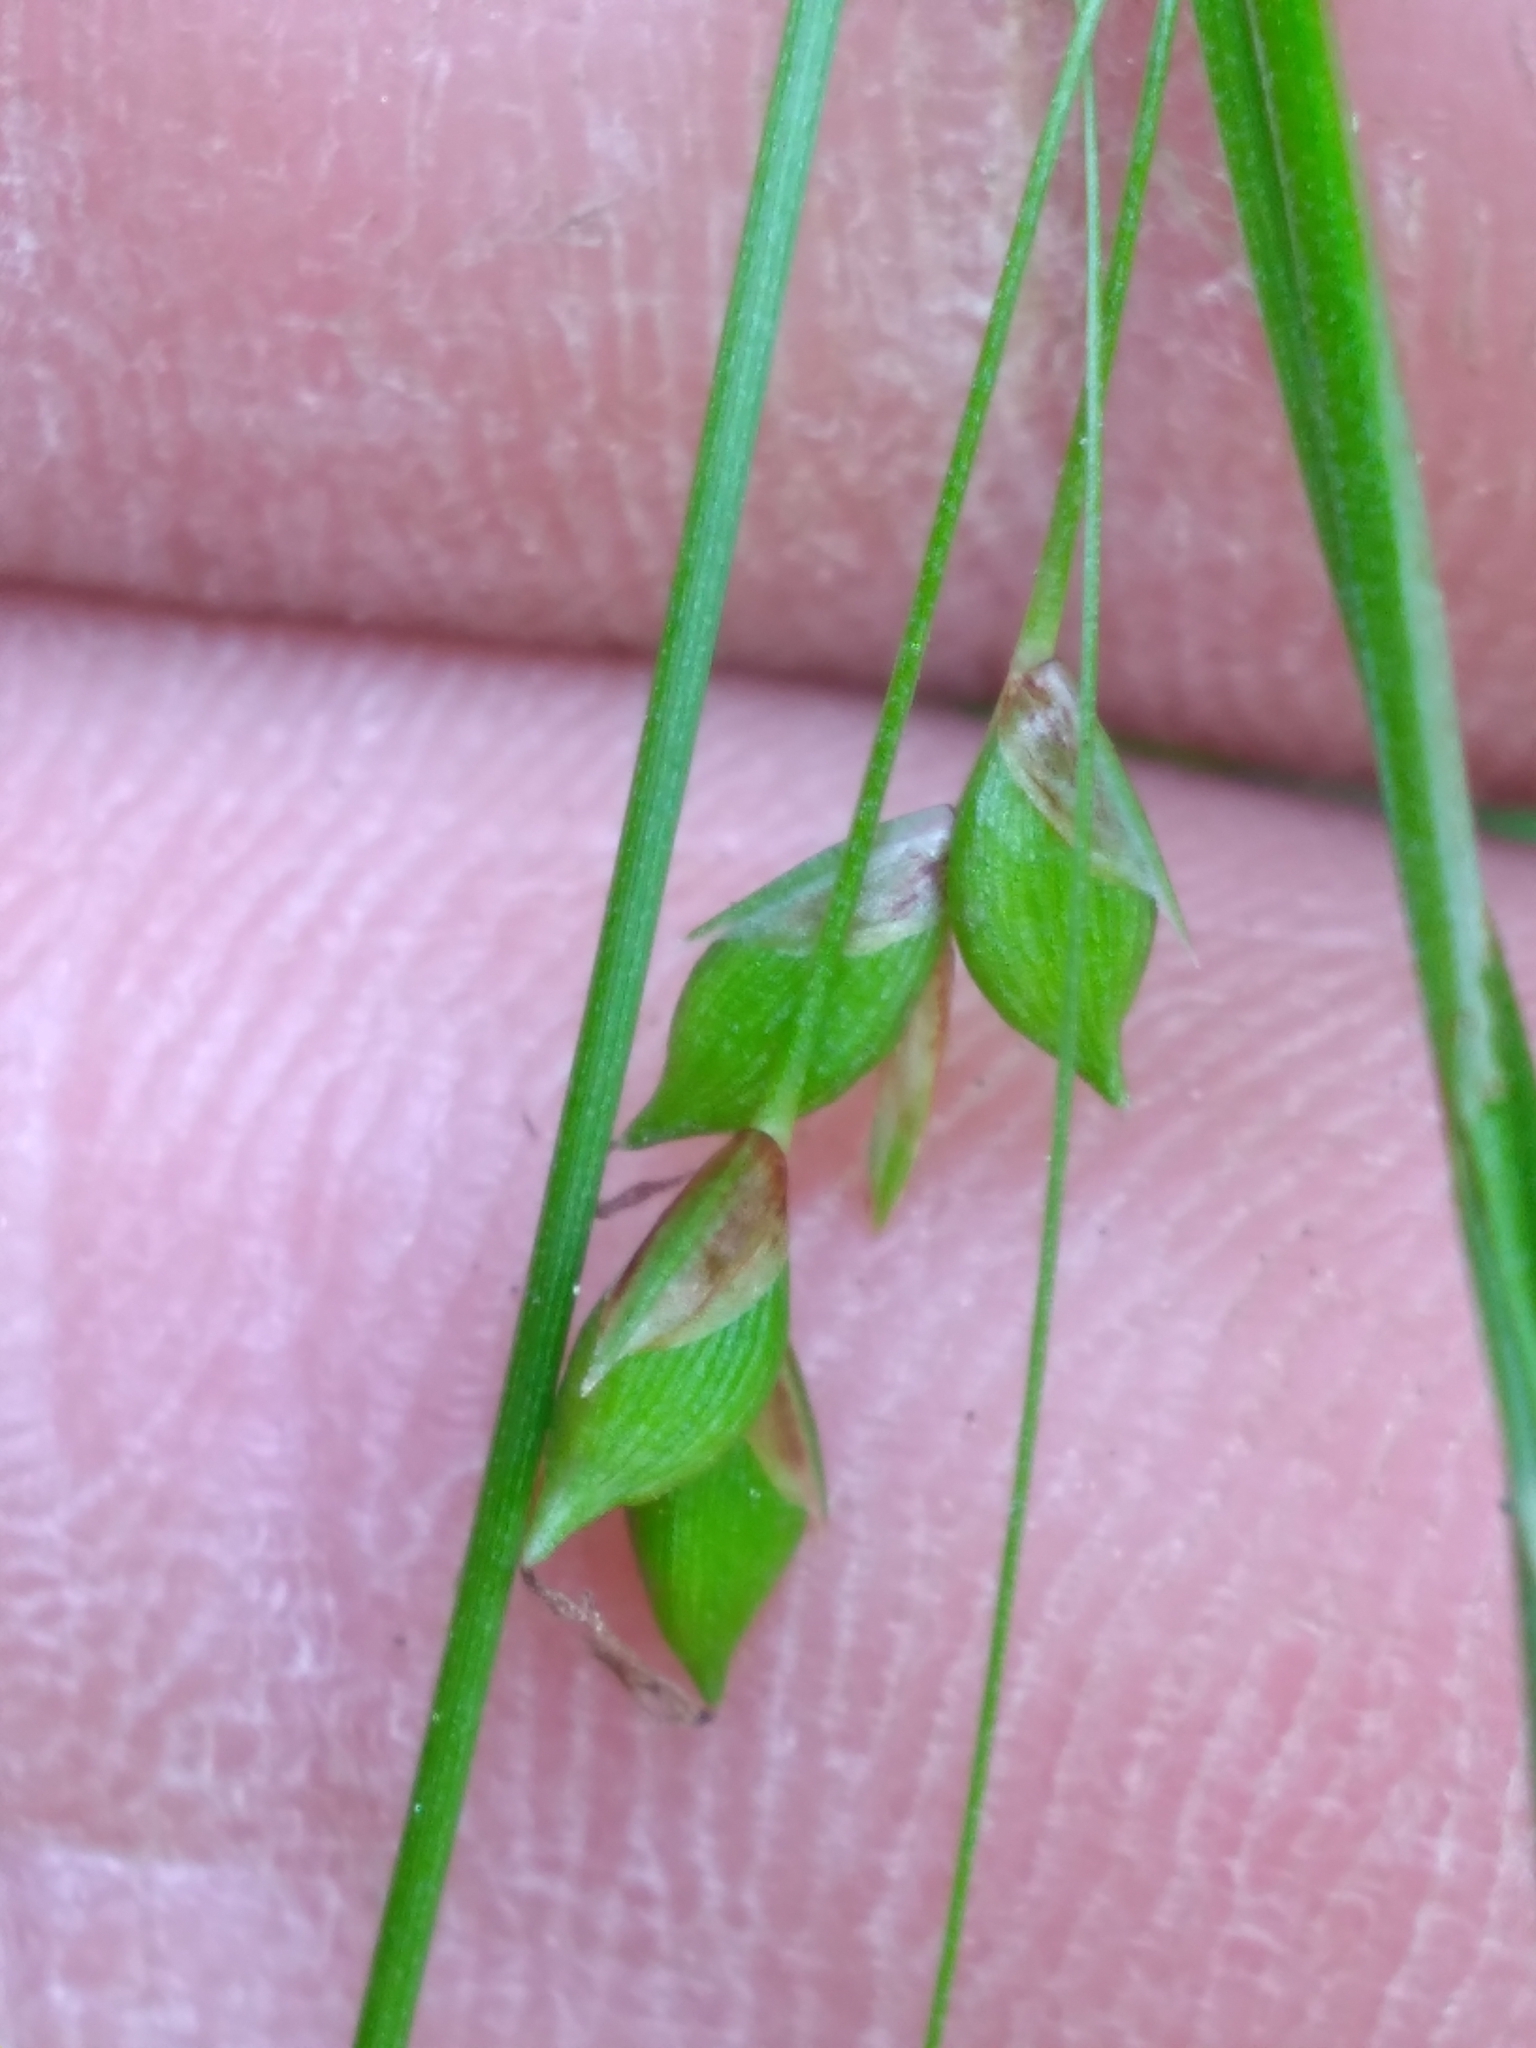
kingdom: Plantae
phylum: Tracheophyta
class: Liliopsida
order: Poales
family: Cyperaceae
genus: Carex
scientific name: Carex austrocaroliniana
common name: Tarheel sedge
